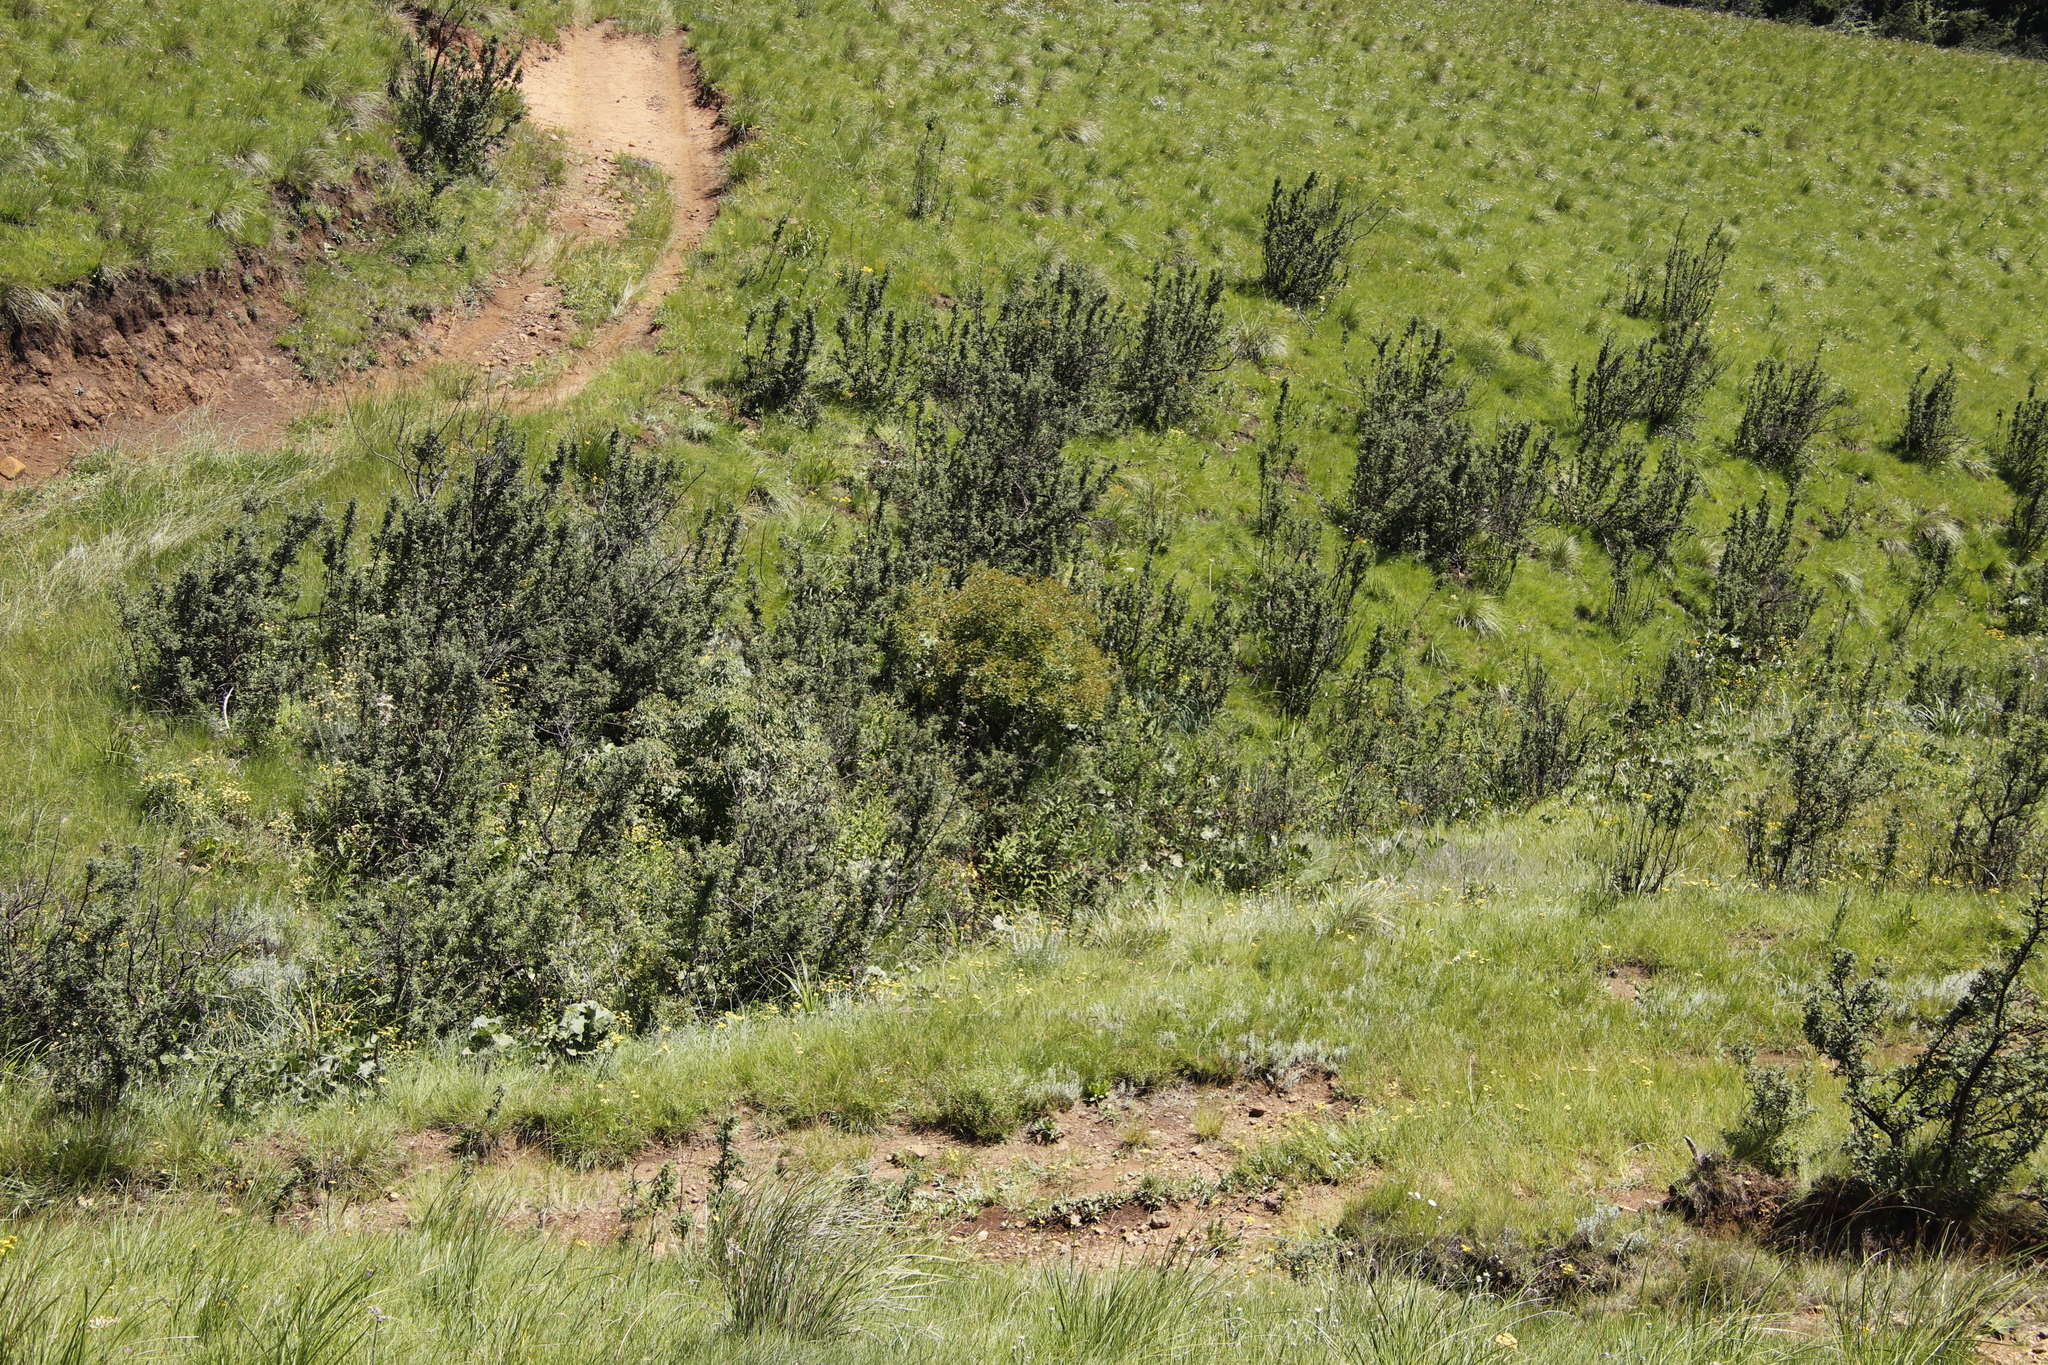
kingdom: Plantae
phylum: Tracheophyta
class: Magnoliopsida
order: Rosales
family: Rosaceae
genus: Leucosidea
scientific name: Leucosidea sericea
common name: Oldwood
